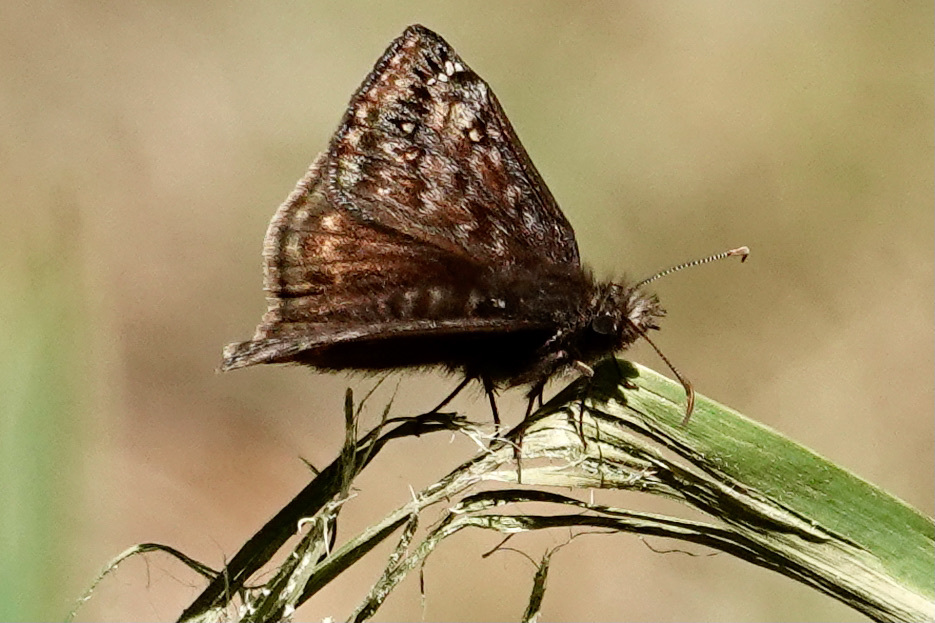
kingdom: Animalia
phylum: Arthropoda
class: Insecta
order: Lepidoptera
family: Hesperiidae
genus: Erynnis
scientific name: Erynnis juvenalis
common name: Juvenal's duskywing
